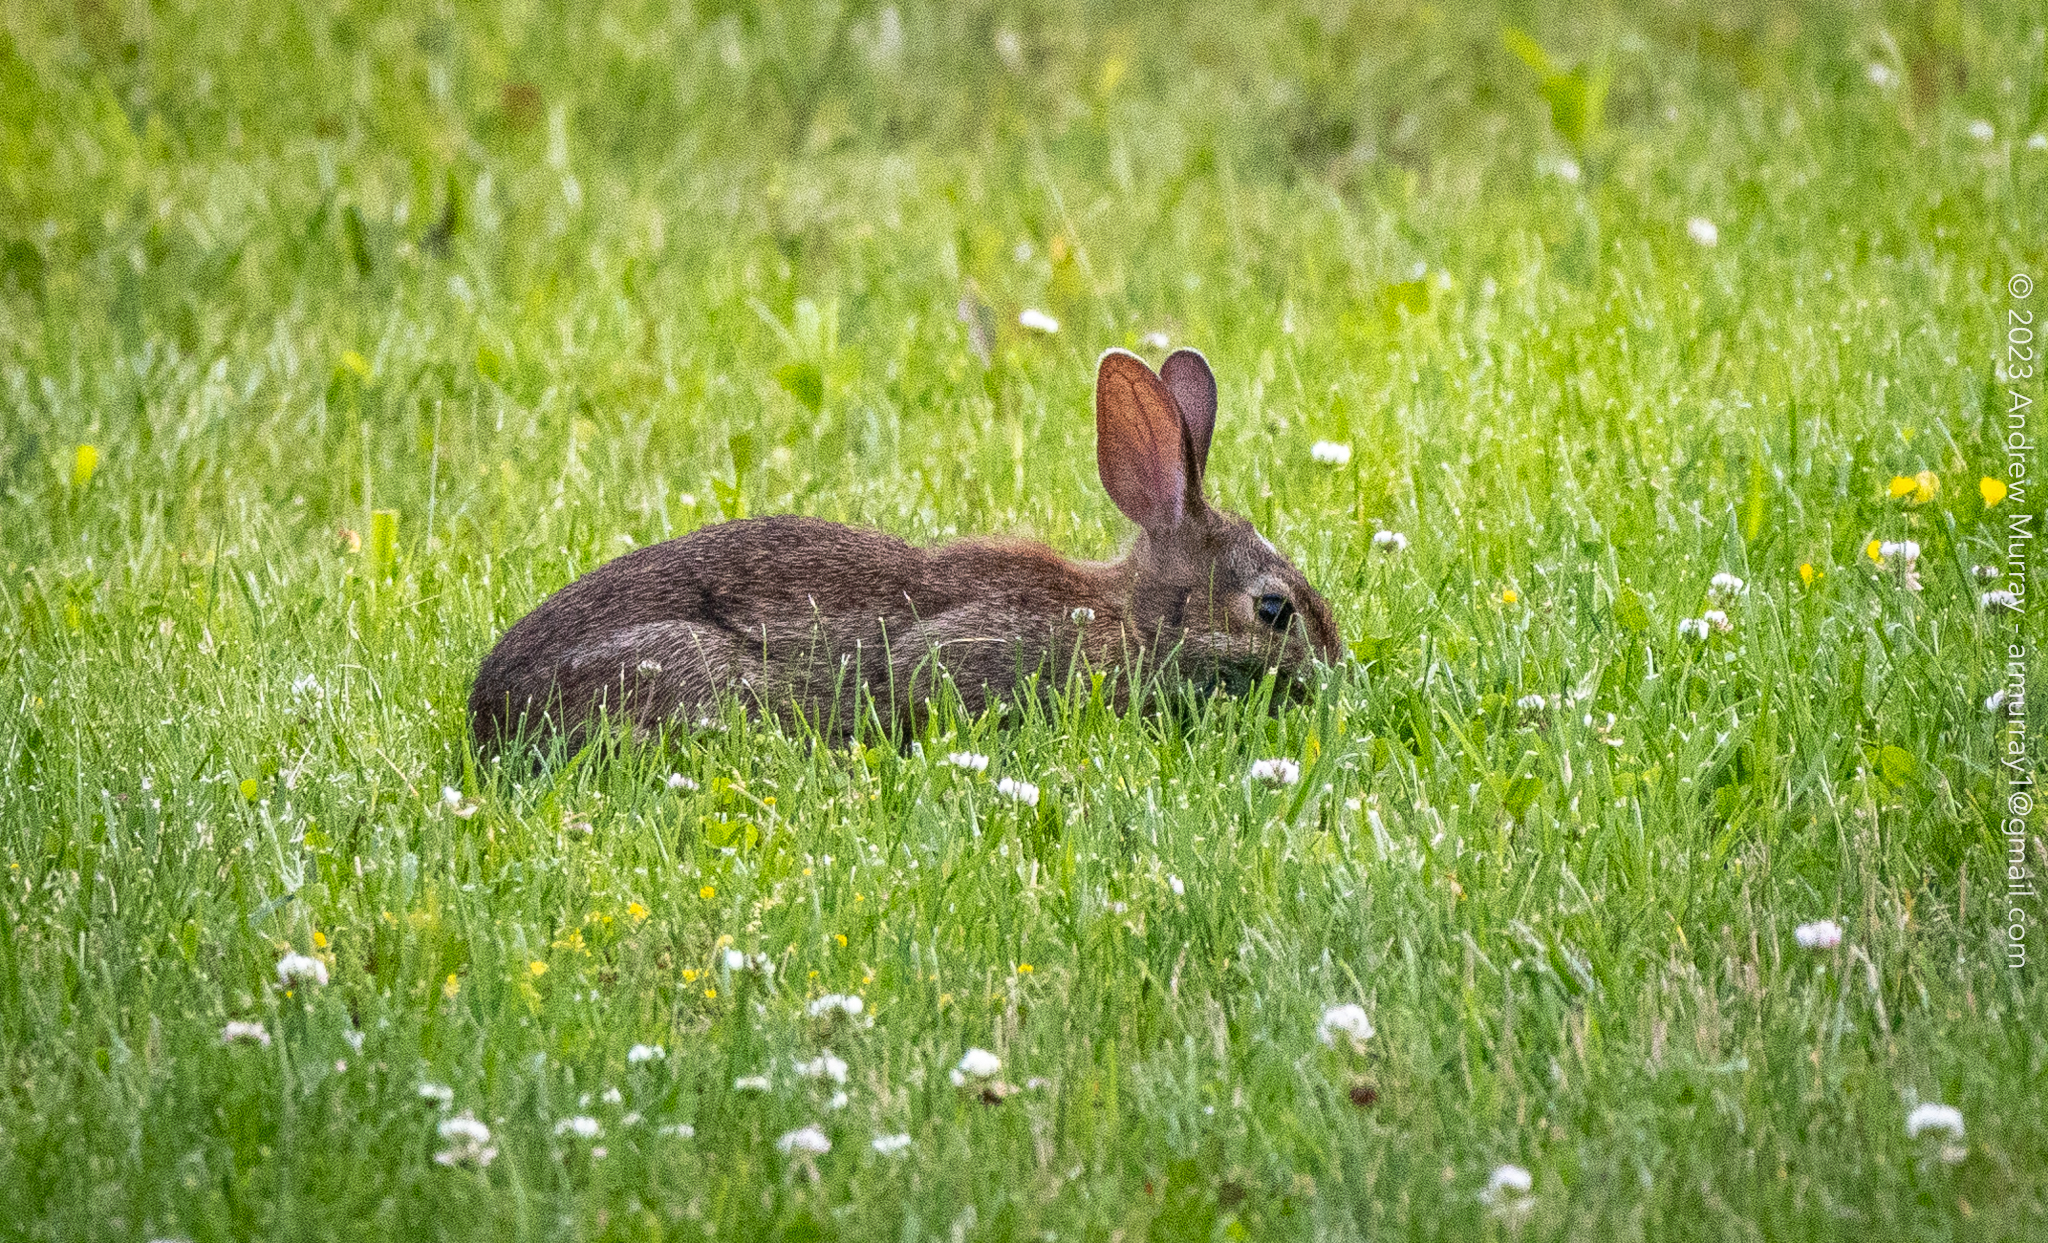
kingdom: Animalia
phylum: Chordata
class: Mammalia
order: Lagomorpha
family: Leporidae
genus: Sylvilagus
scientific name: Sylvilagus floridanus
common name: Eastern cottontail
